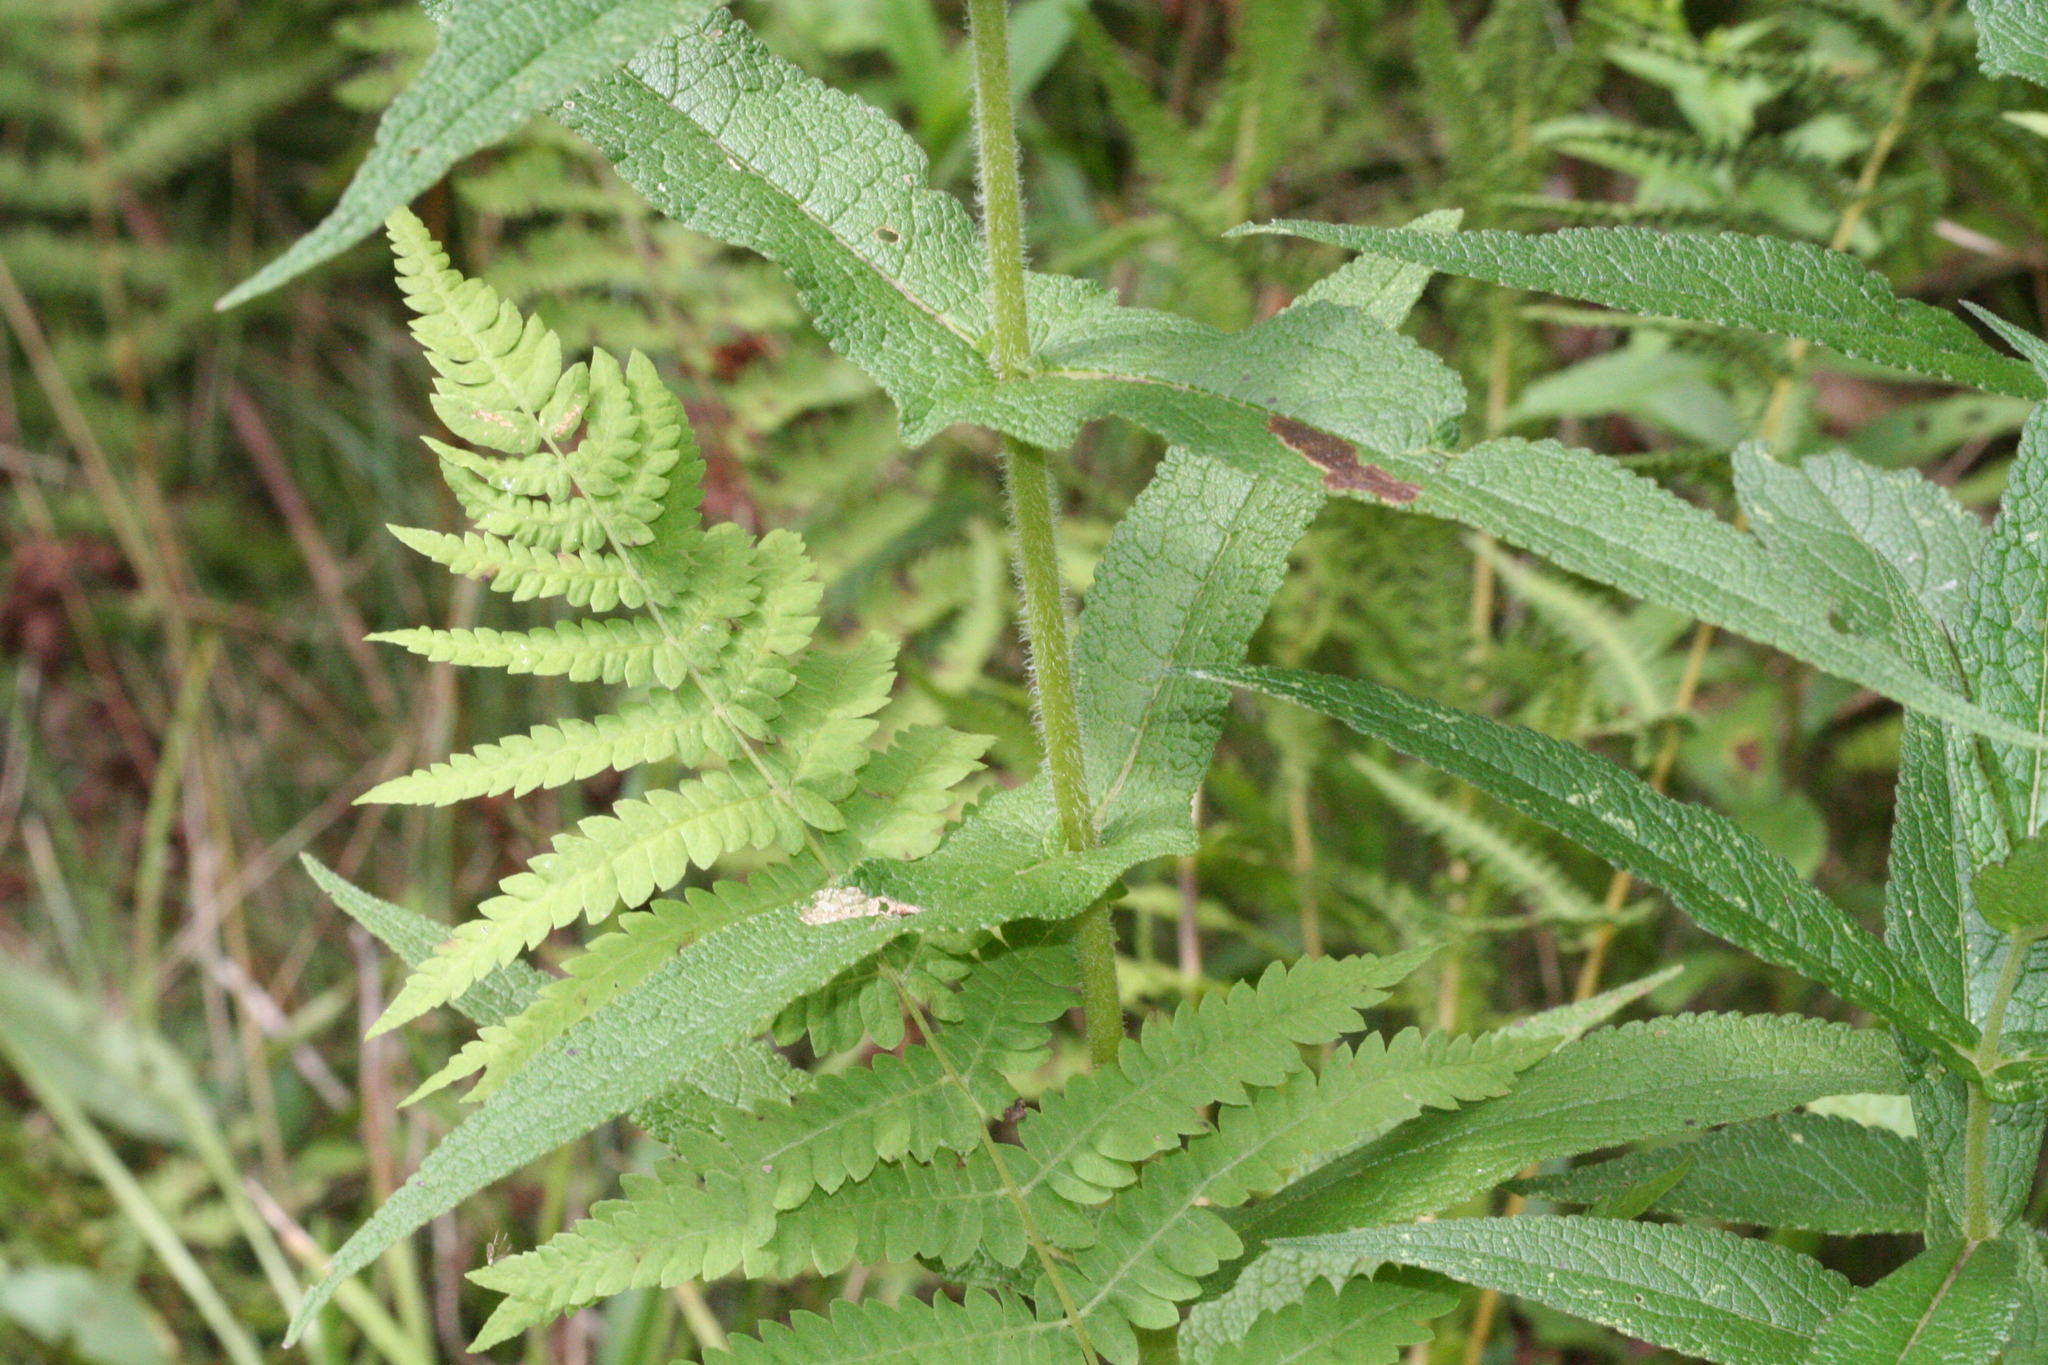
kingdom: Plantae
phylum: Tracheophyta
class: Polypodiopsida
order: Polypodiales
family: Thelypteridaceae
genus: Thelypteris
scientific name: Thelypteris palustris
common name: Marsh fern
